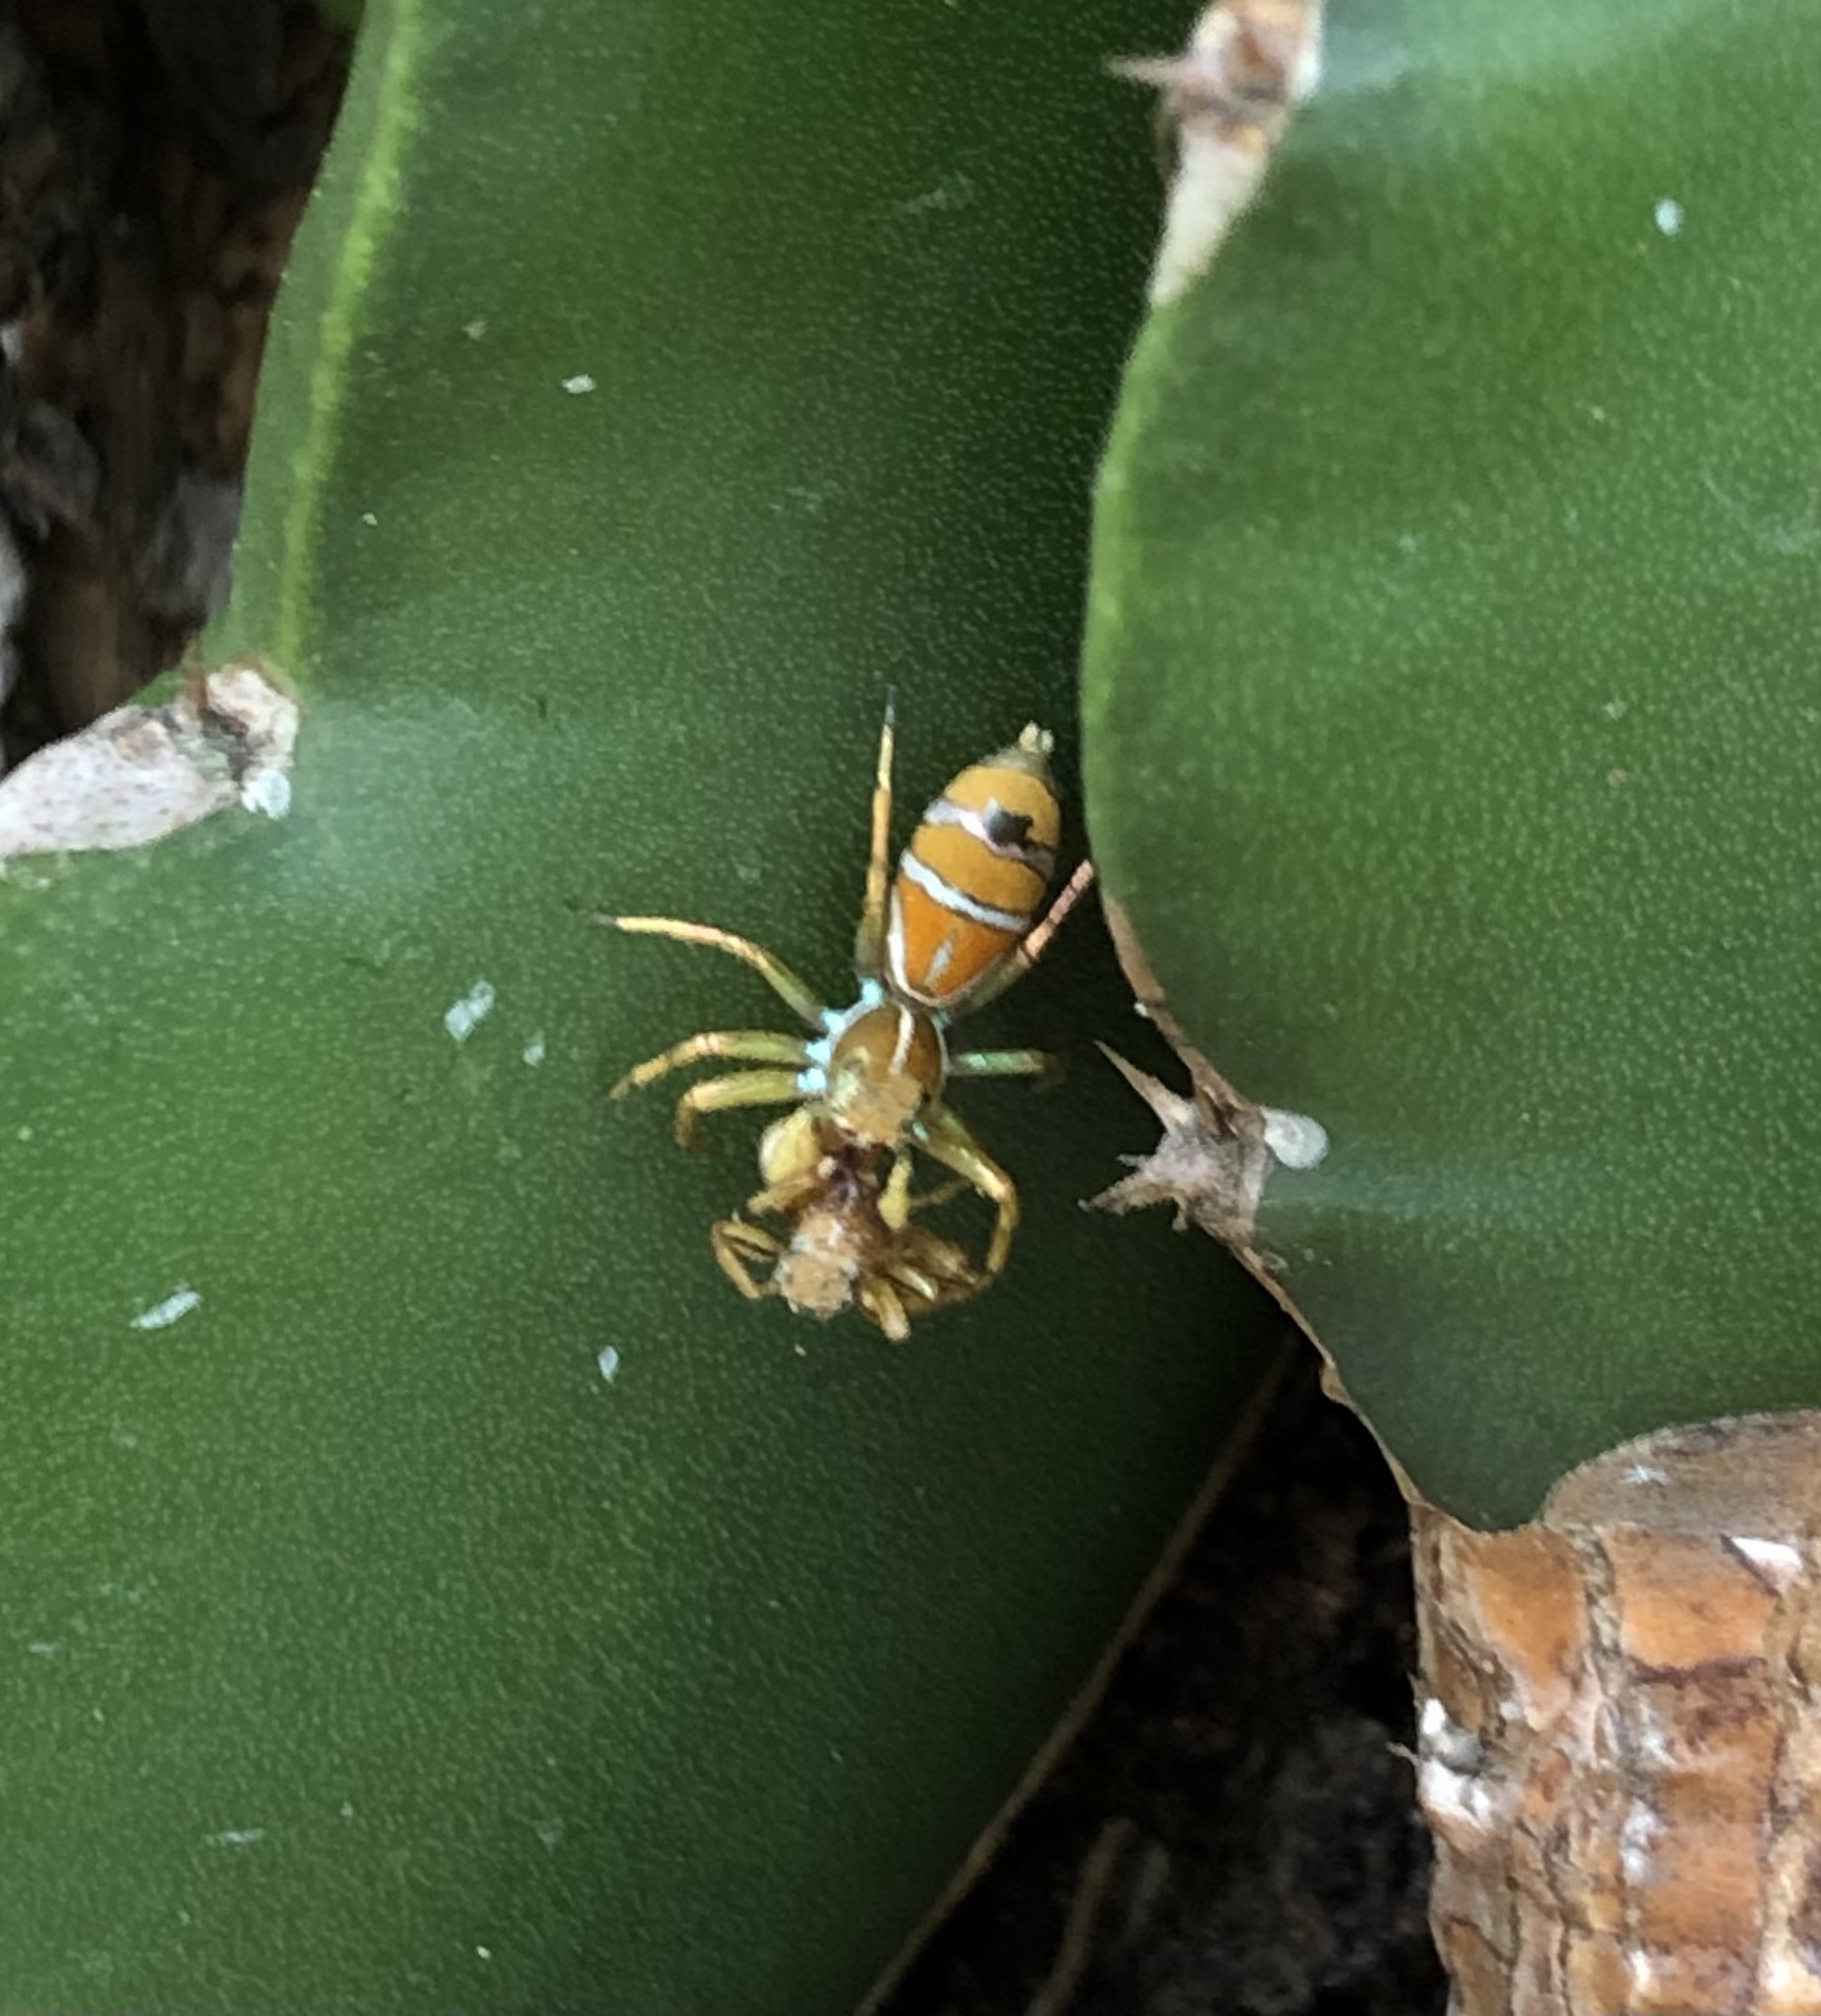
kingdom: Animalia
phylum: Arthropoda
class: Arachnida
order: Araneae
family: Salticidae
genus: Cosmophasis
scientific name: Cosmophasis bitaeniata
